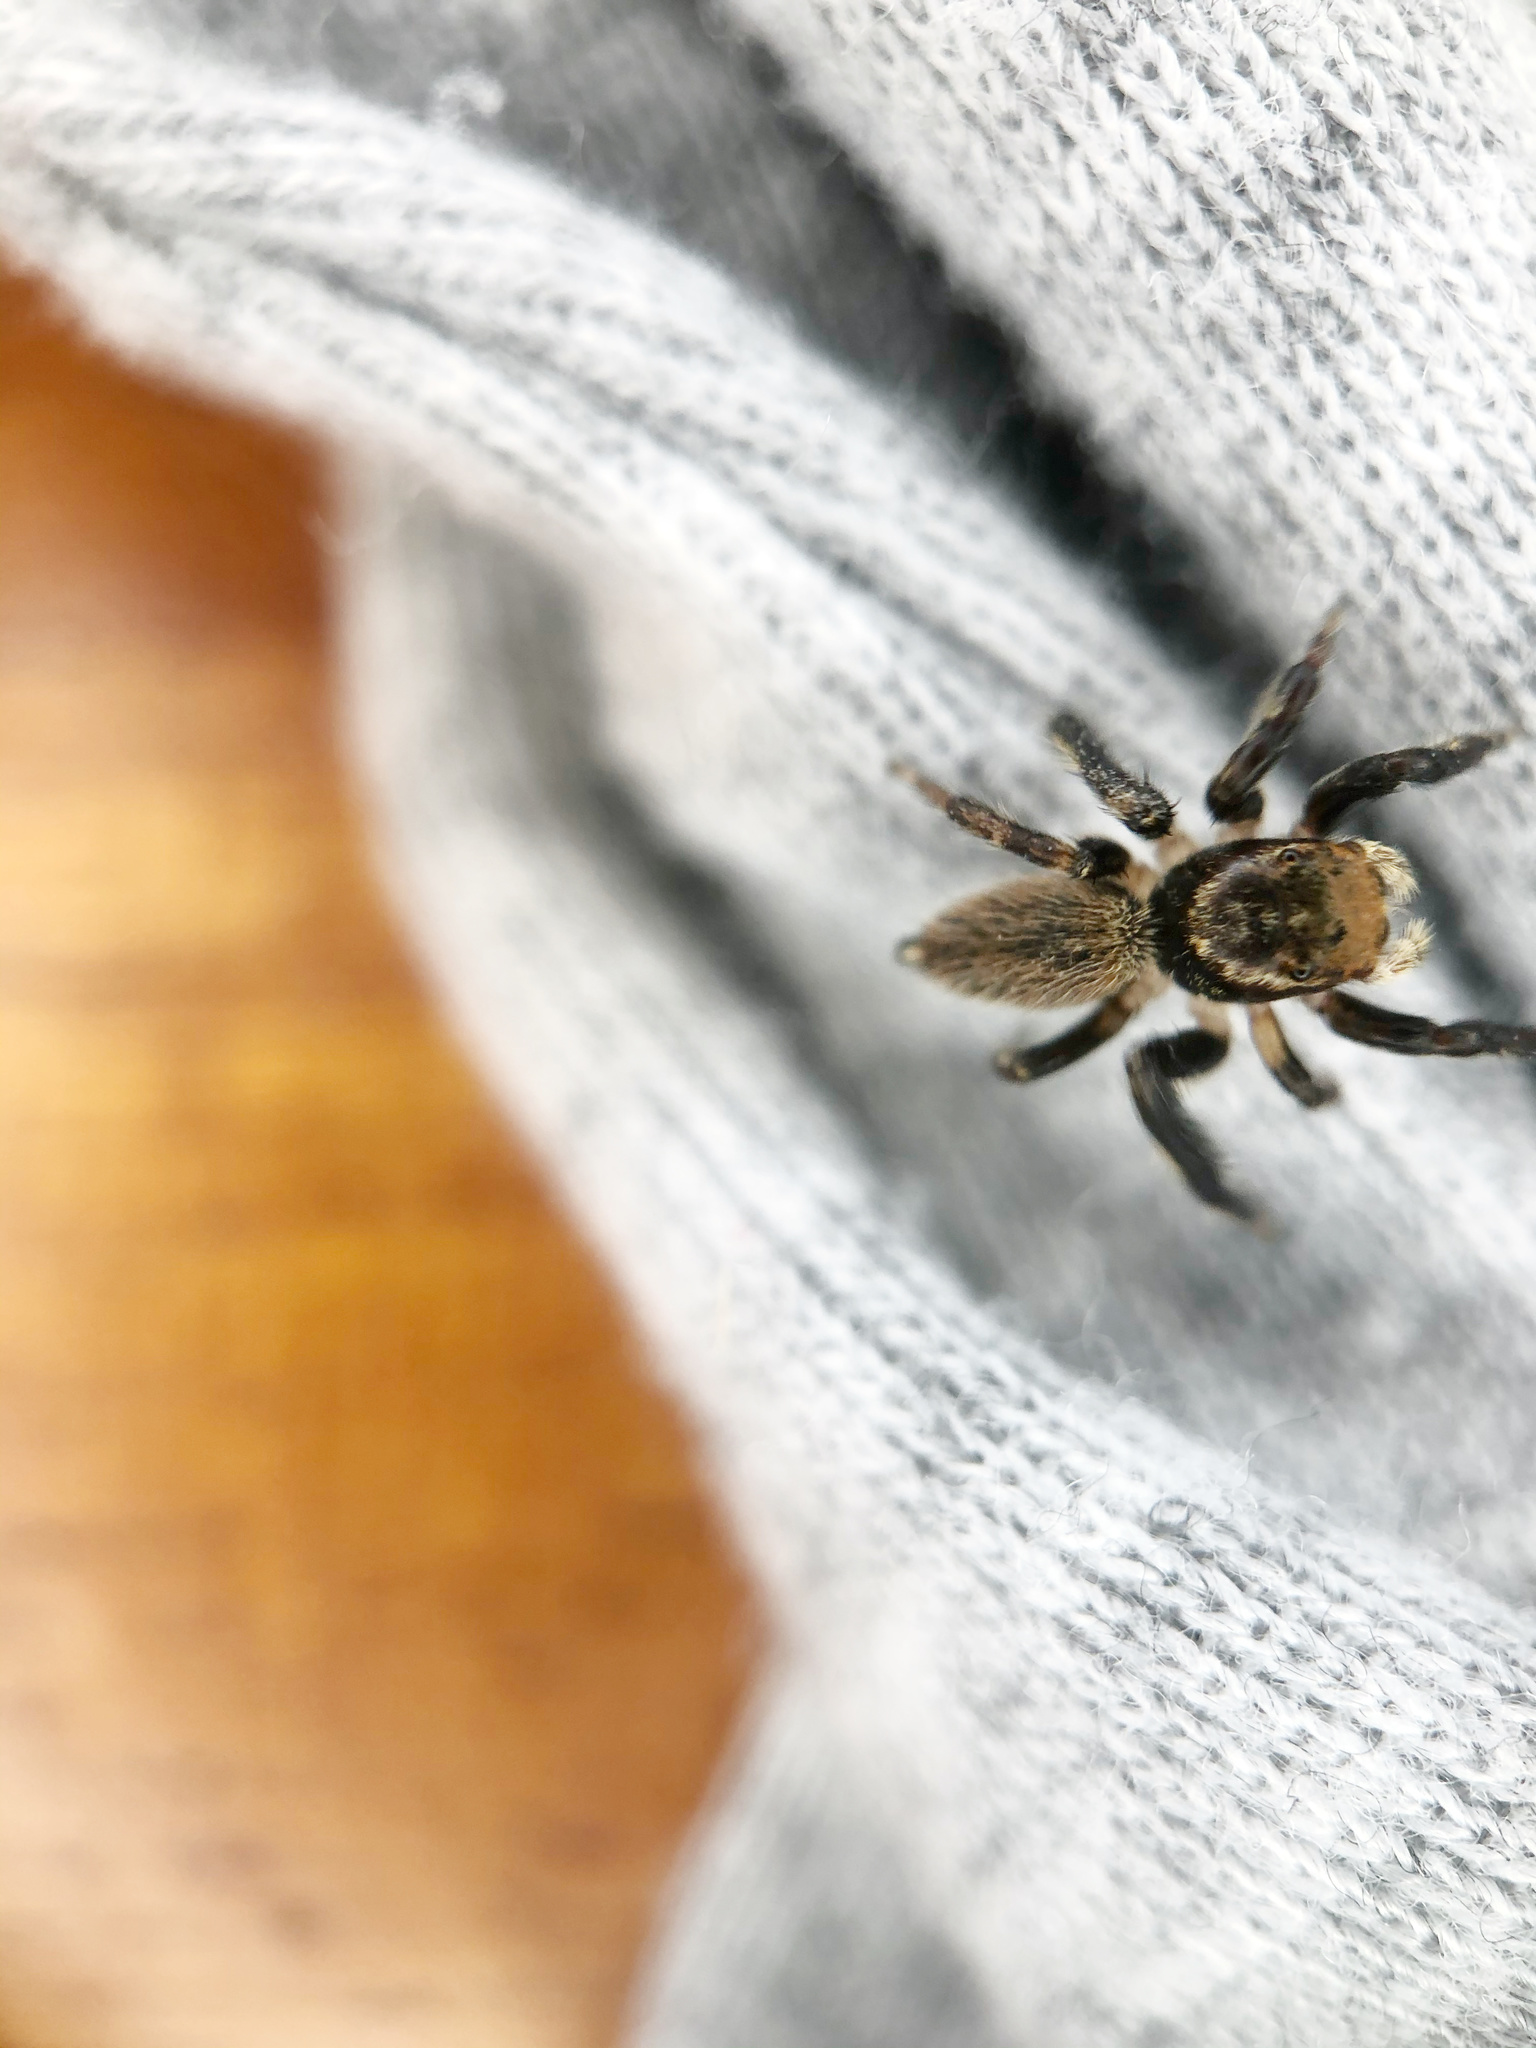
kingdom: Animalia
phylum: Arthropoda
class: Arachnida
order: Araneae
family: Salticidae
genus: Maratus
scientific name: Maratus griseus
